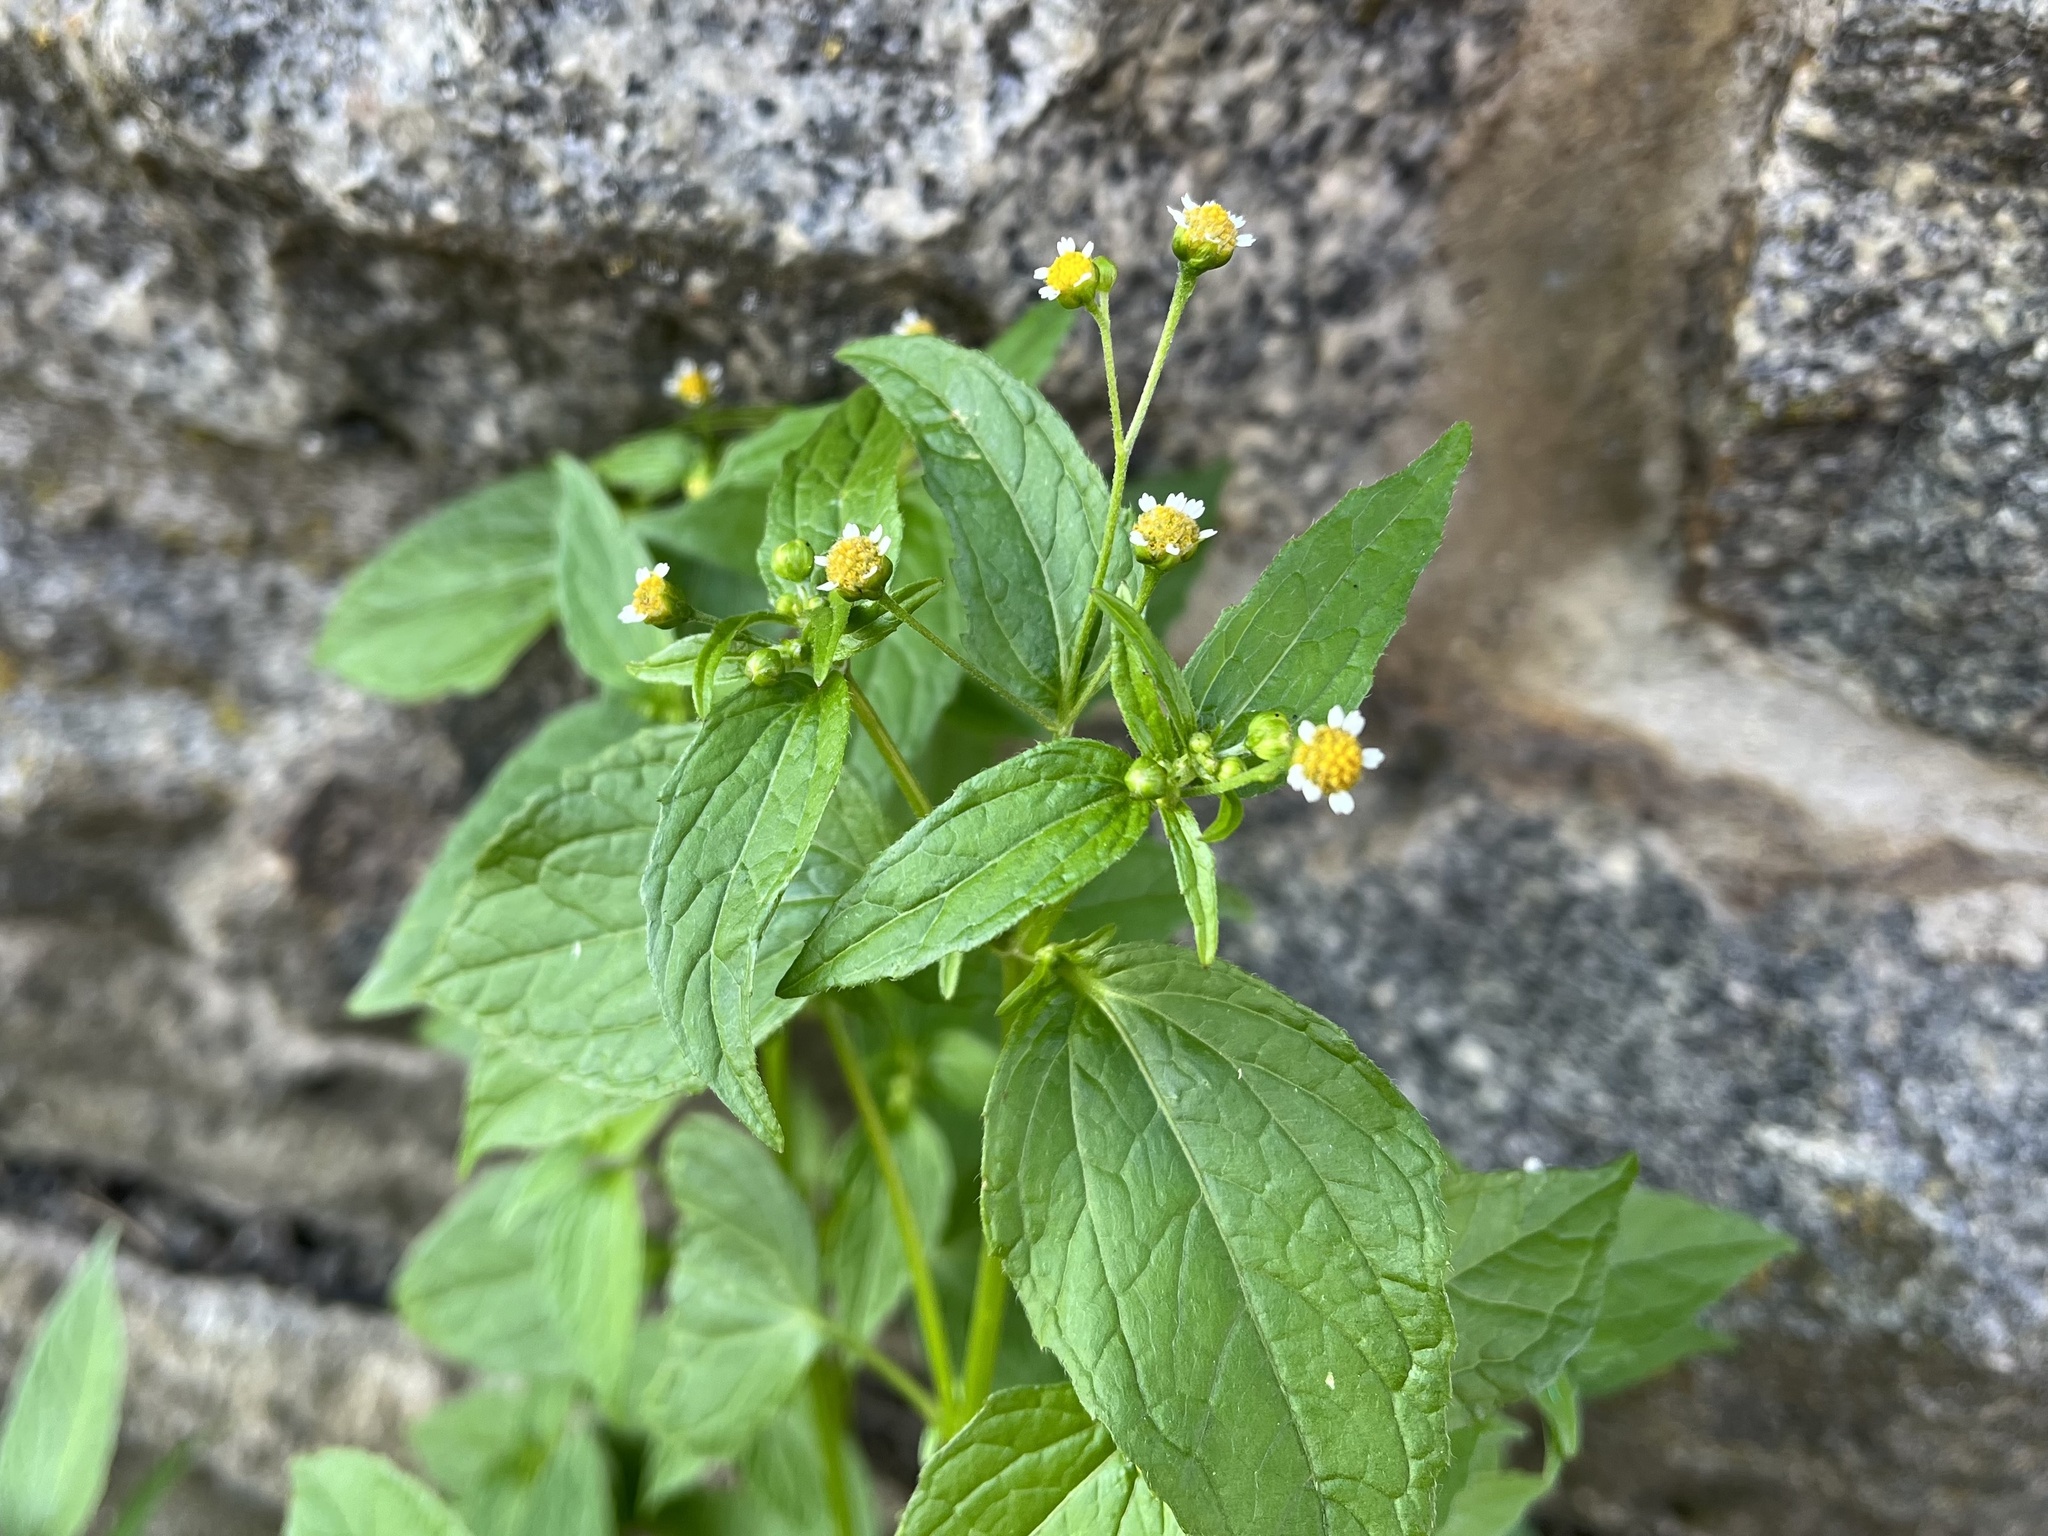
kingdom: Plantae
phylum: Tracheophyta
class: Magnoliopsida
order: Asterales
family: Asteraceae
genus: Galinsoga
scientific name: Galinsoga parviflora
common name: Gallant soldier
